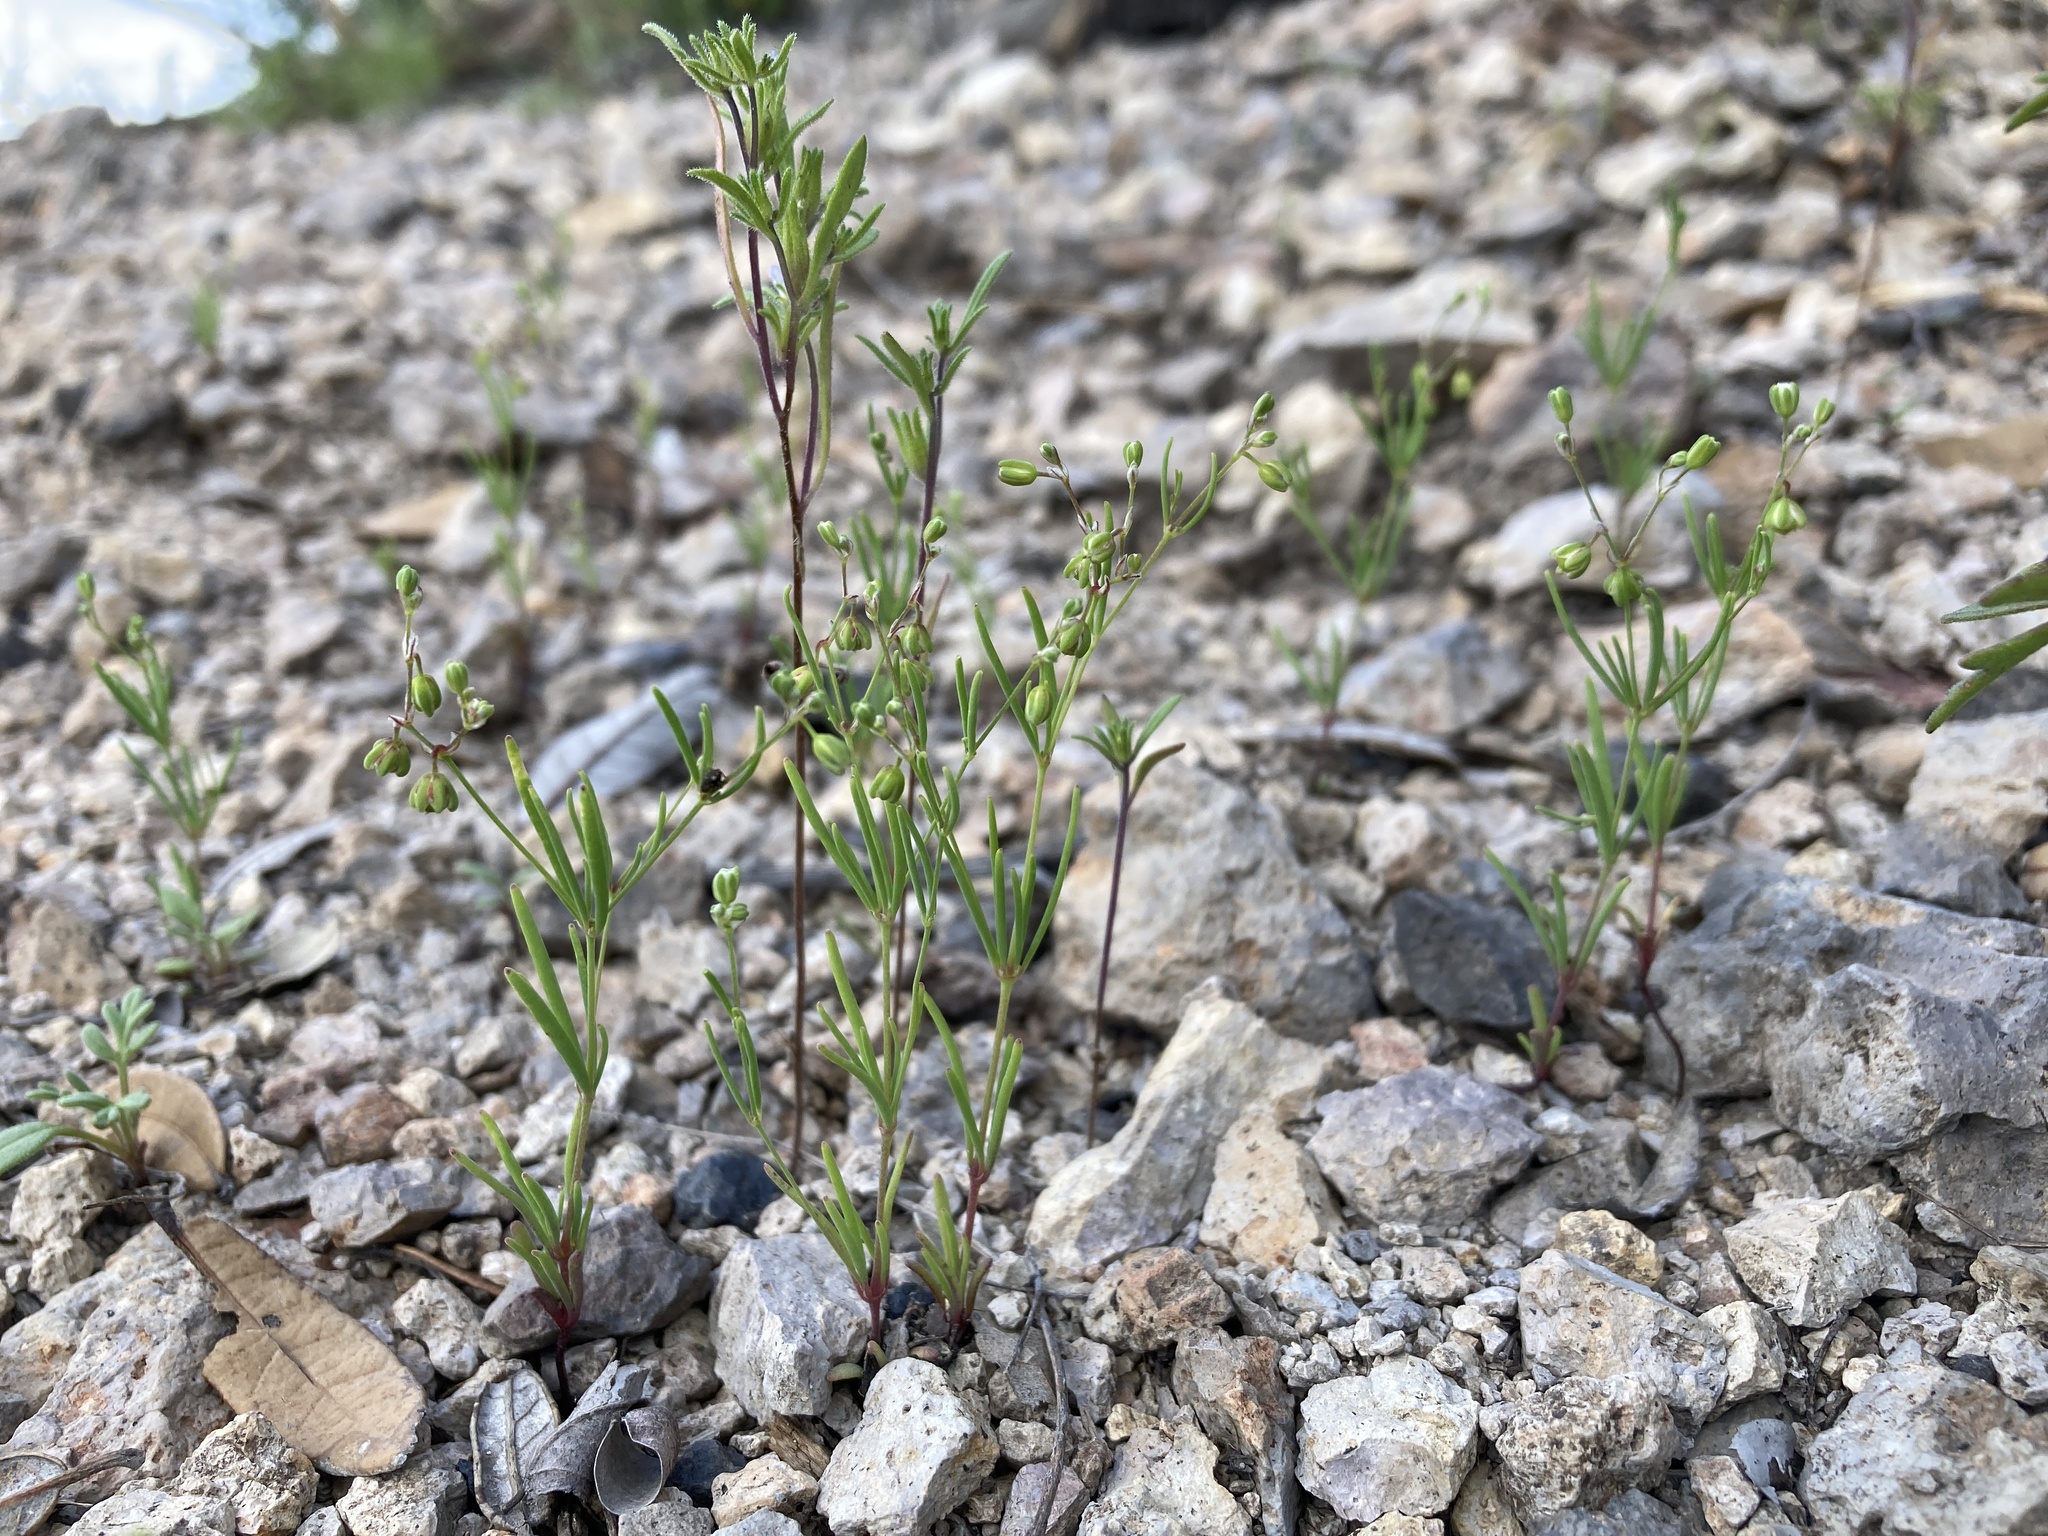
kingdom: Plantae
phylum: Tracheophyta
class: Magnoliopsida
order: Caryophyllales
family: Caryophyllaceae
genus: Drymaria
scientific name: Drymaria molluginea
